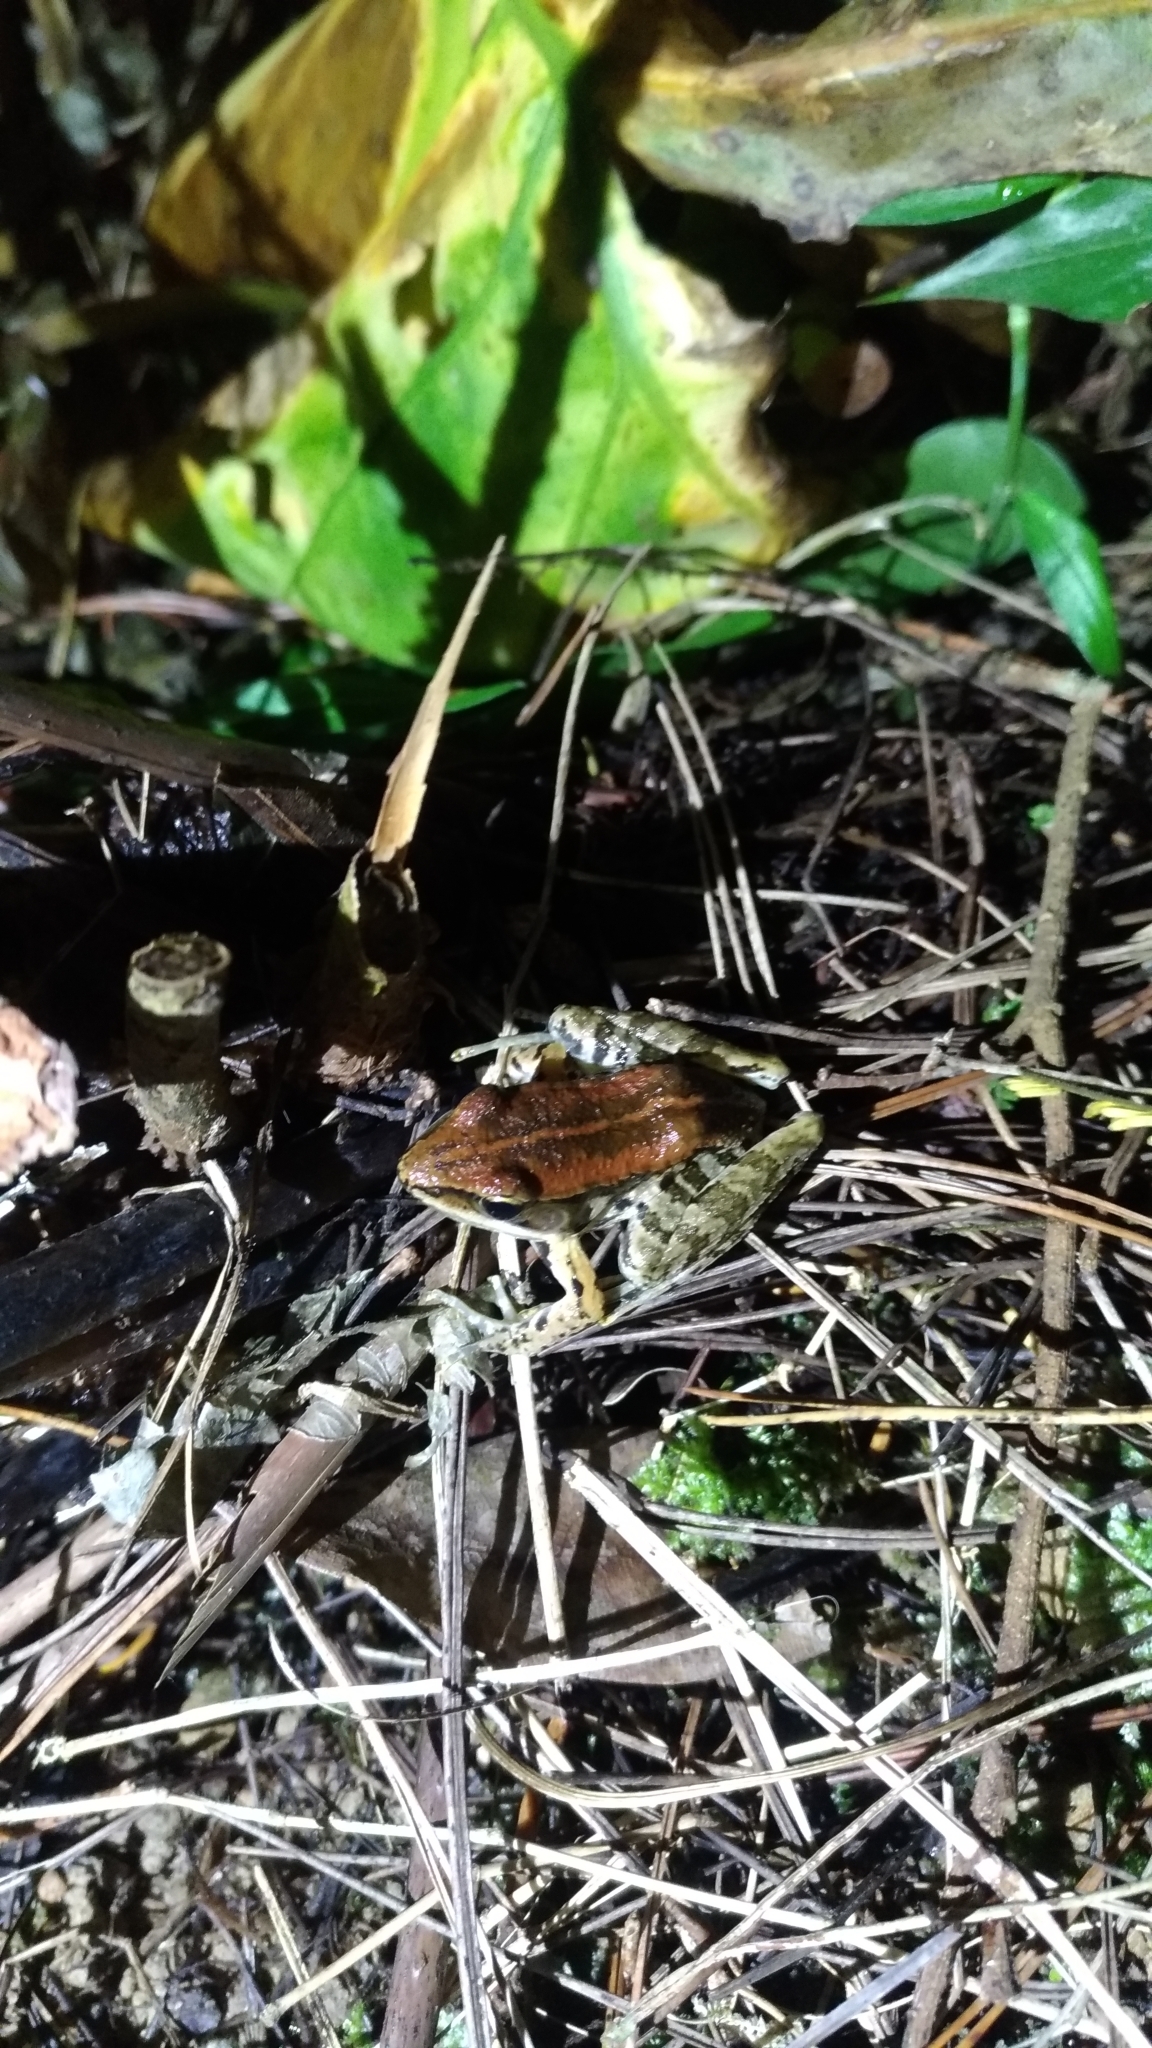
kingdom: Animalia
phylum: Chordata
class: Amphibia
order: Anura
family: Ranidae
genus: Nidirana
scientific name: Nidirana adenopleura
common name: Olive frog
